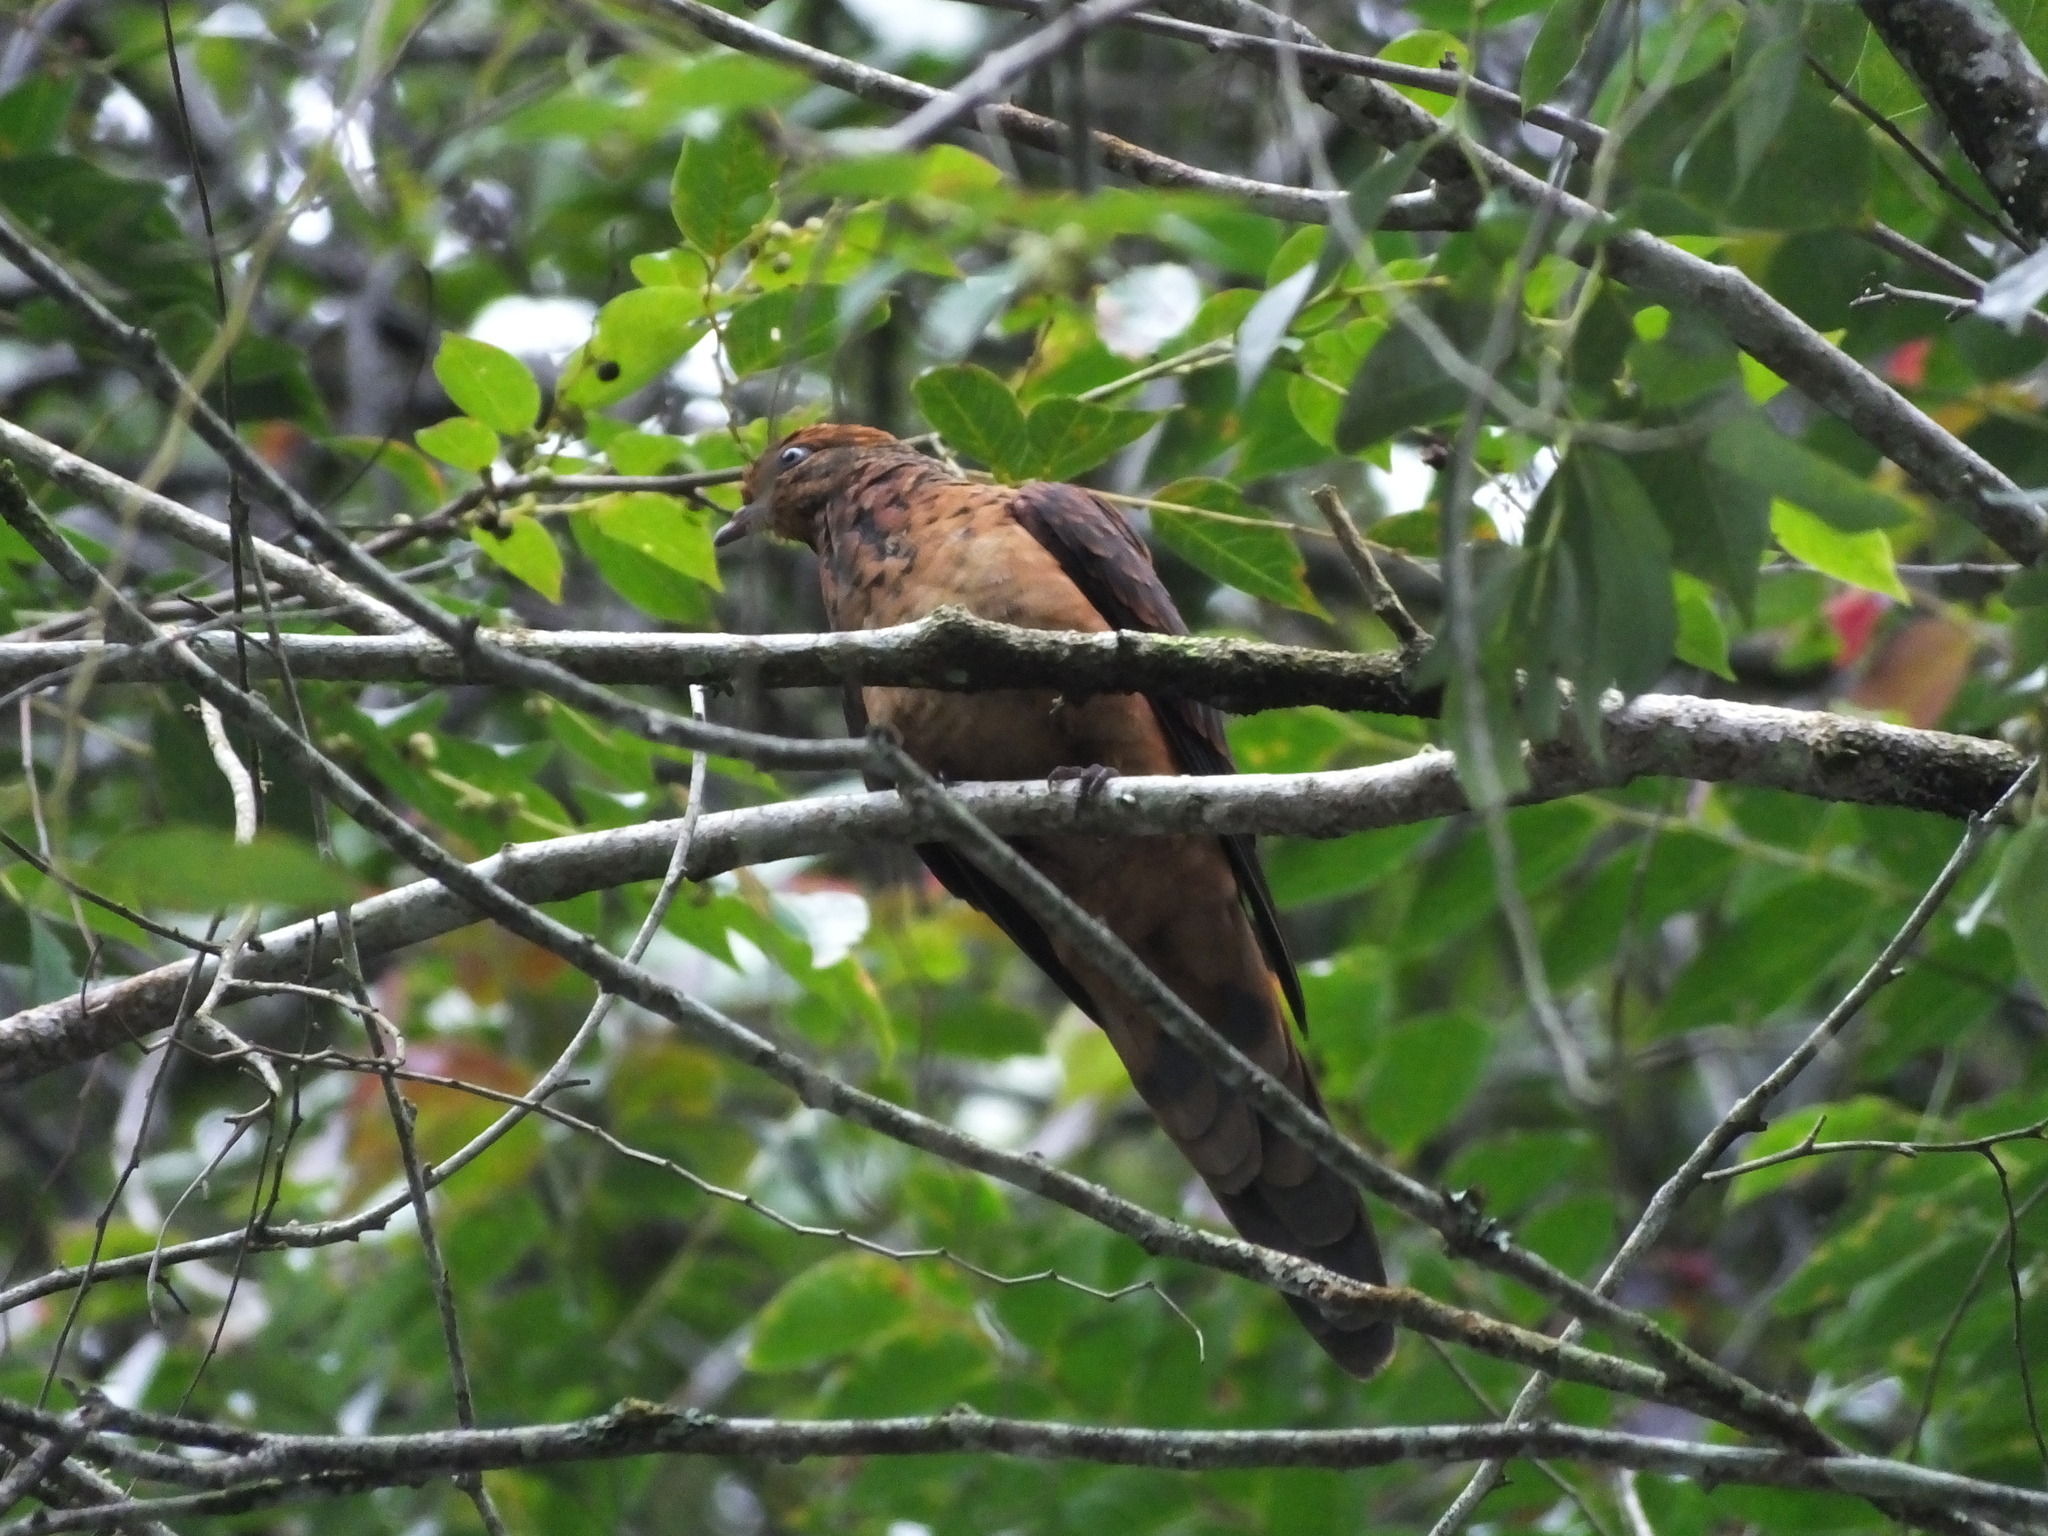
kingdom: Animalia
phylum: Chordata
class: Aves
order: Columbiformes
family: Columbidae
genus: Macropygia
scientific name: Macropygia ruficeps
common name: Little cuckoo-dove
